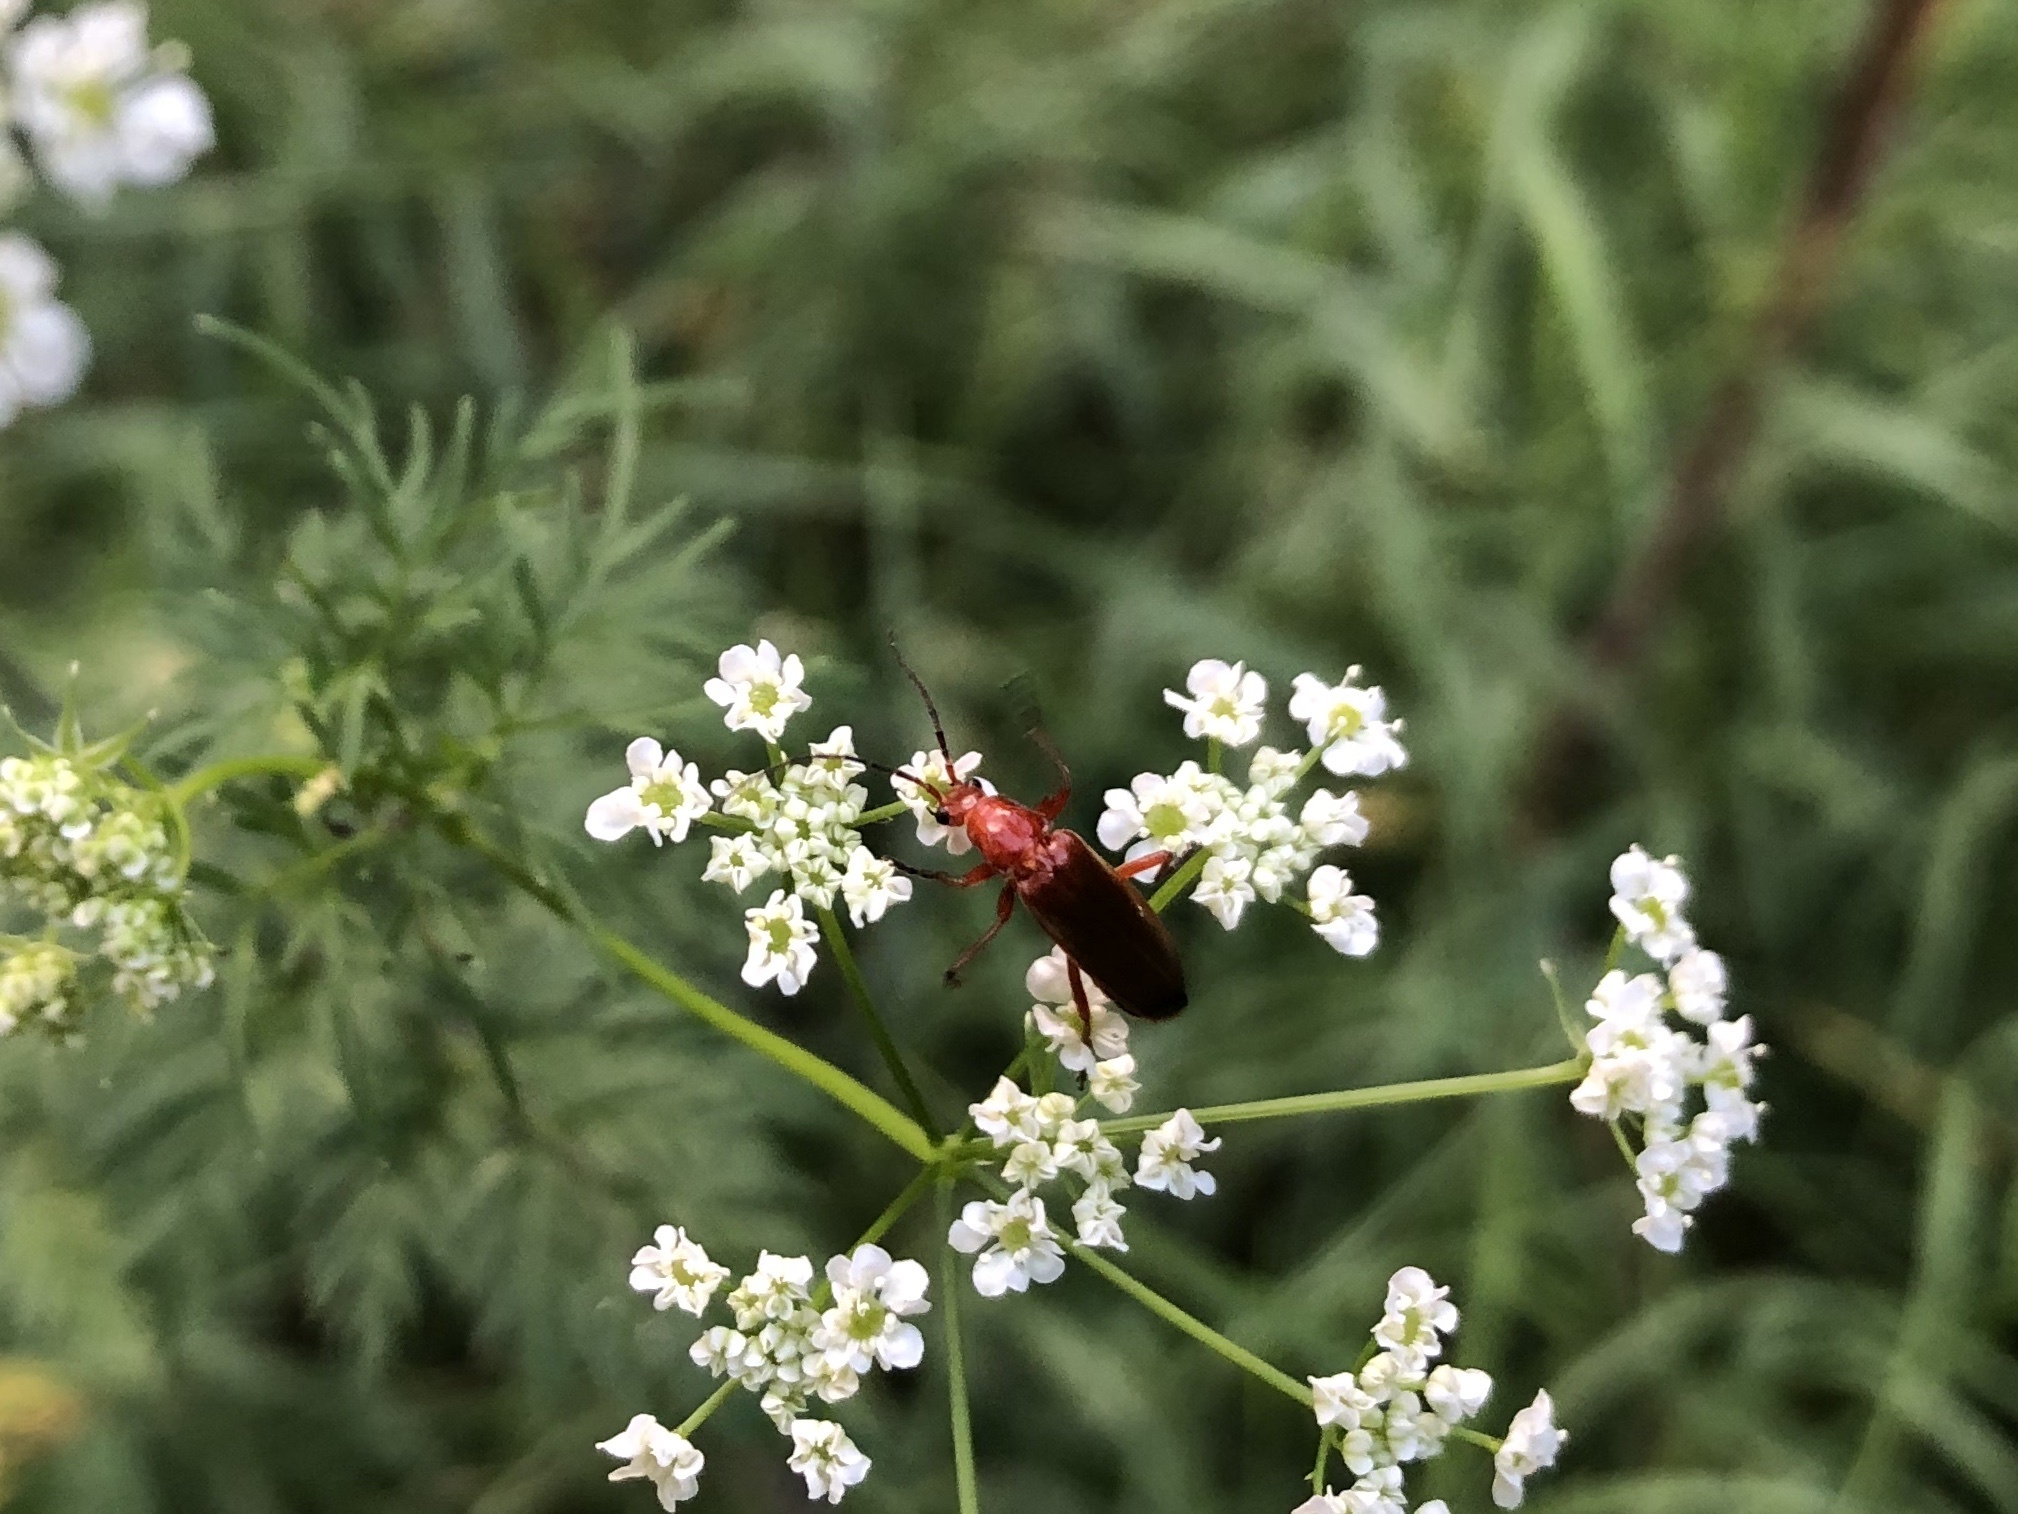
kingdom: Animalia
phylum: Arthropoda
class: Insecta
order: Coleoptera
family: Cantharidae
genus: Rhagonycha
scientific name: Rhagonycha fulva
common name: Common red soldier beetle
